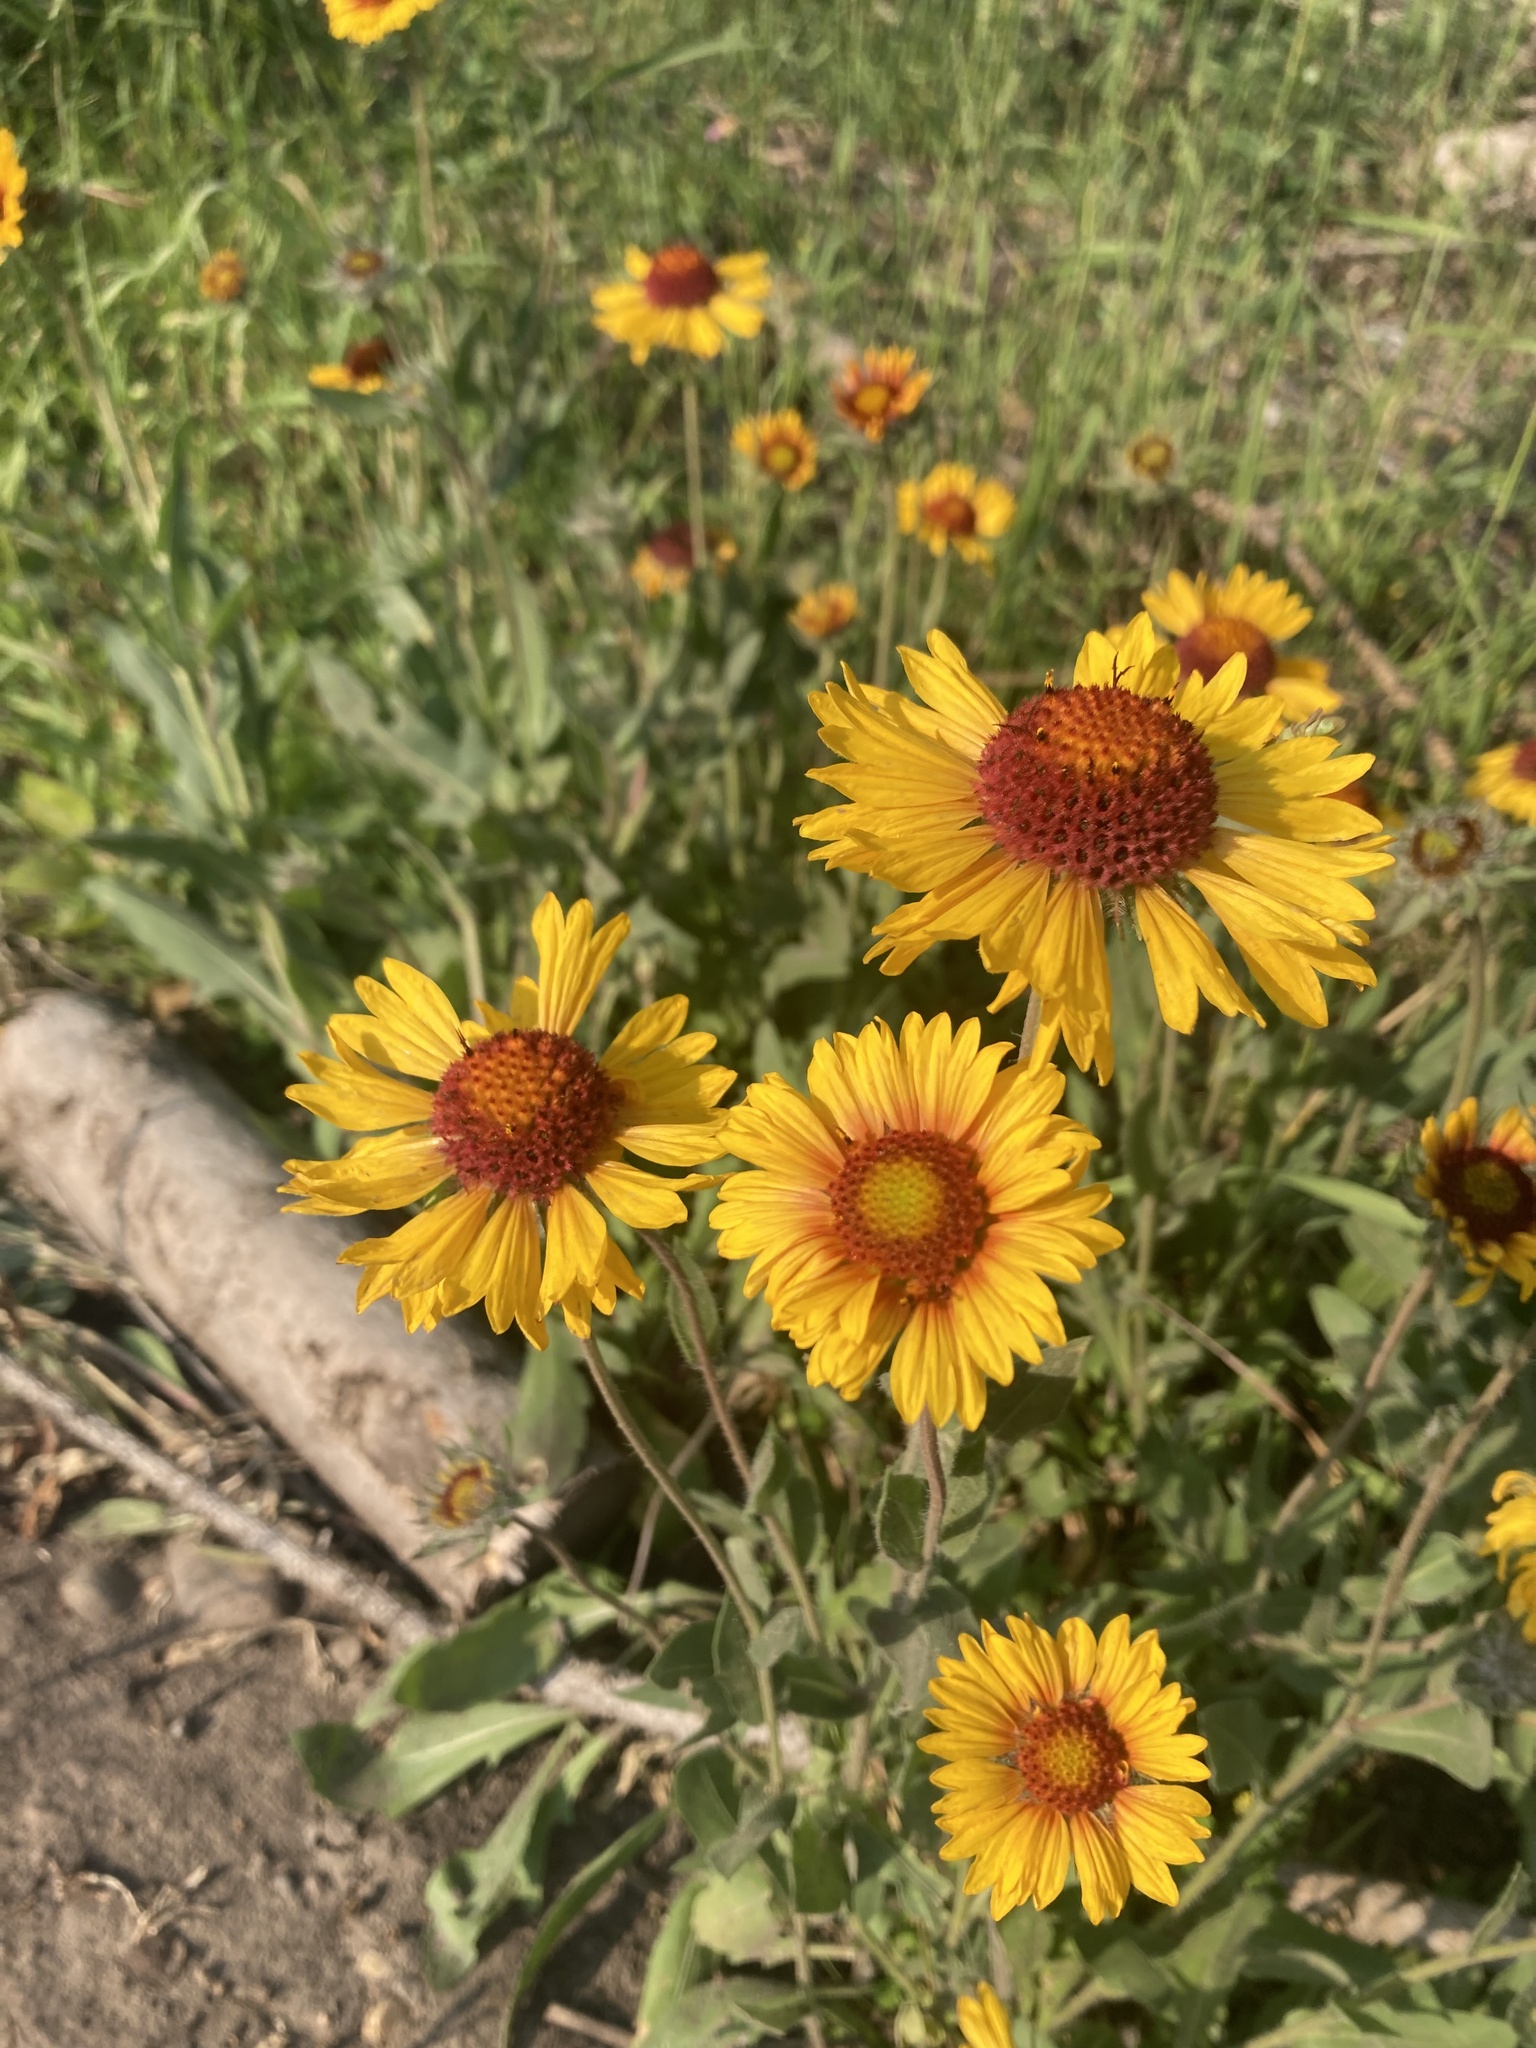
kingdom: Plantae
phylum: Tracheophyta
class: Magnoliopsida
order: Asterales
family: Asteraceae
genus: Gaillardia
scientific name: Gaillardia aristata
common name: Blanket-flower
